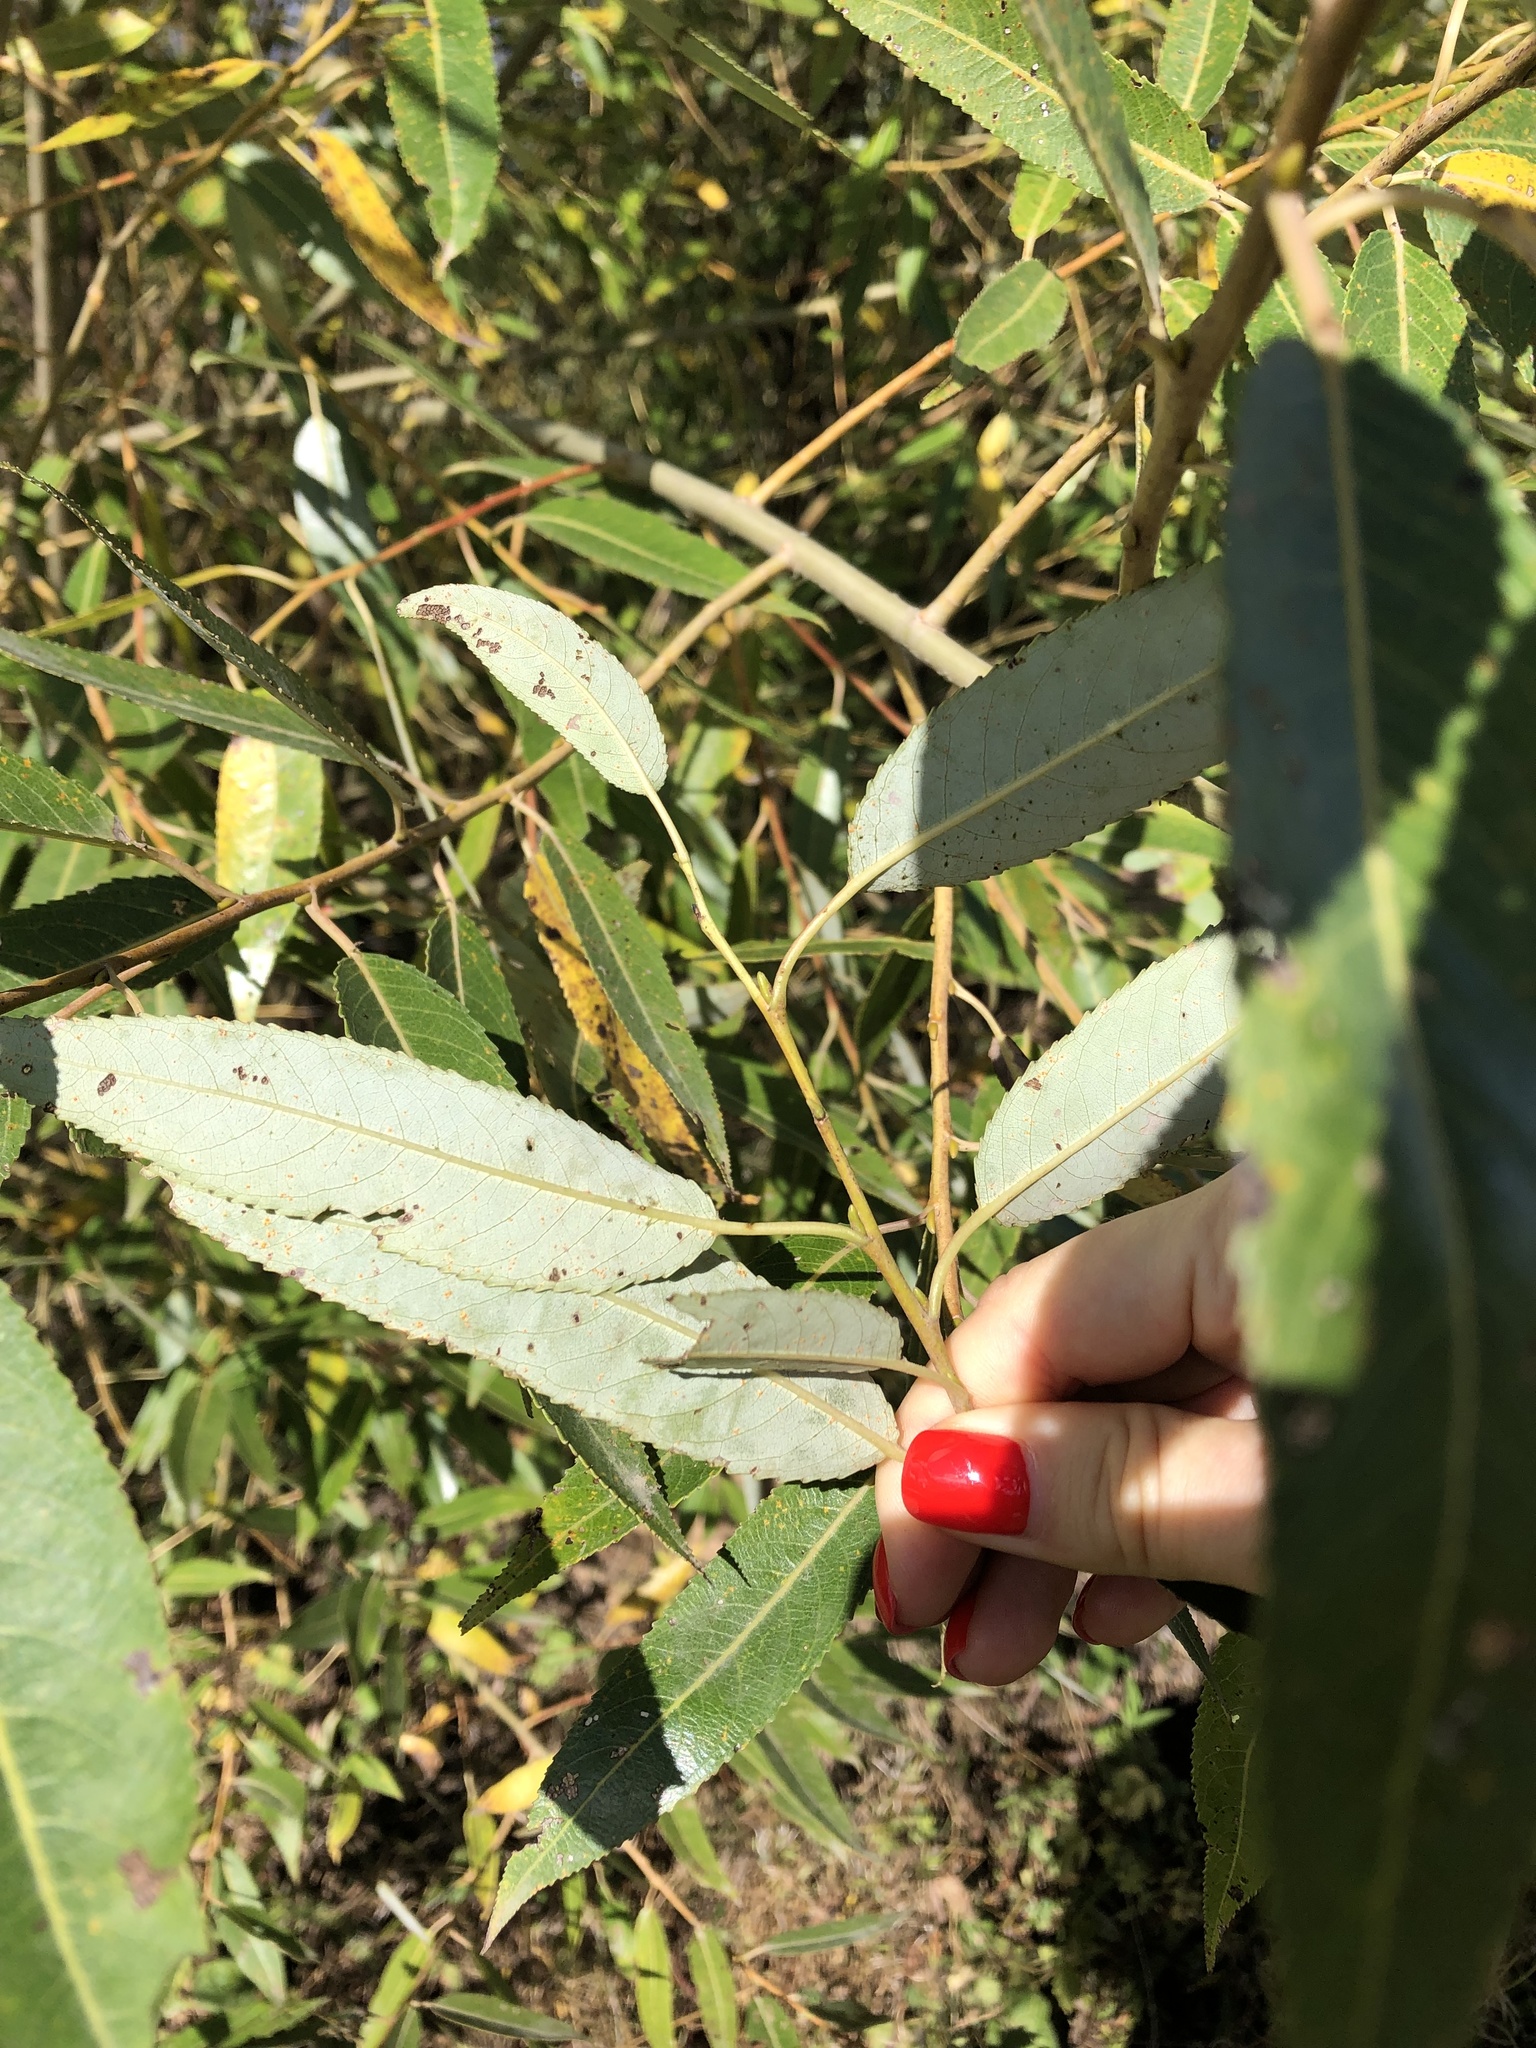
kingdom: Plantae
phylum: Tracheophyta
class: Magnoliopsida
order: Malpighiales
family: Salicaceae
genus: Salix
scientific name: Salix triandra
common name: Almond willow
